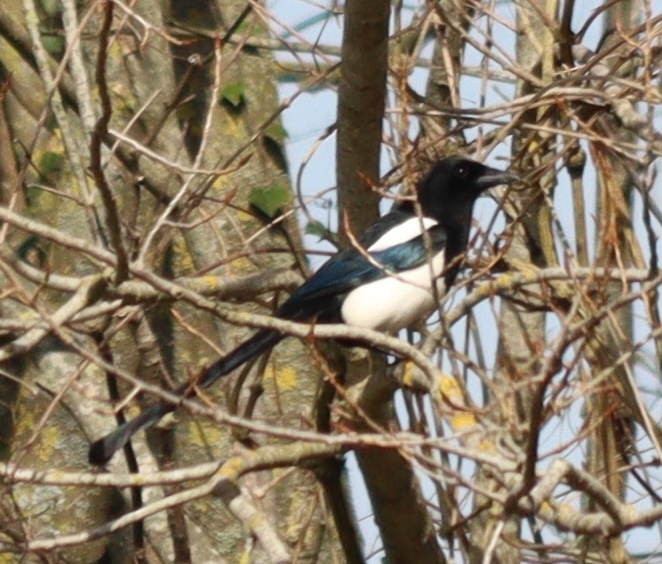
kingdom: Animalia
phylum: Chordata
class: Aves
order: Passeriformes
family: Corvidae
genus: Pica
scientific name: Pica pica
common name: Eurasian magpie
